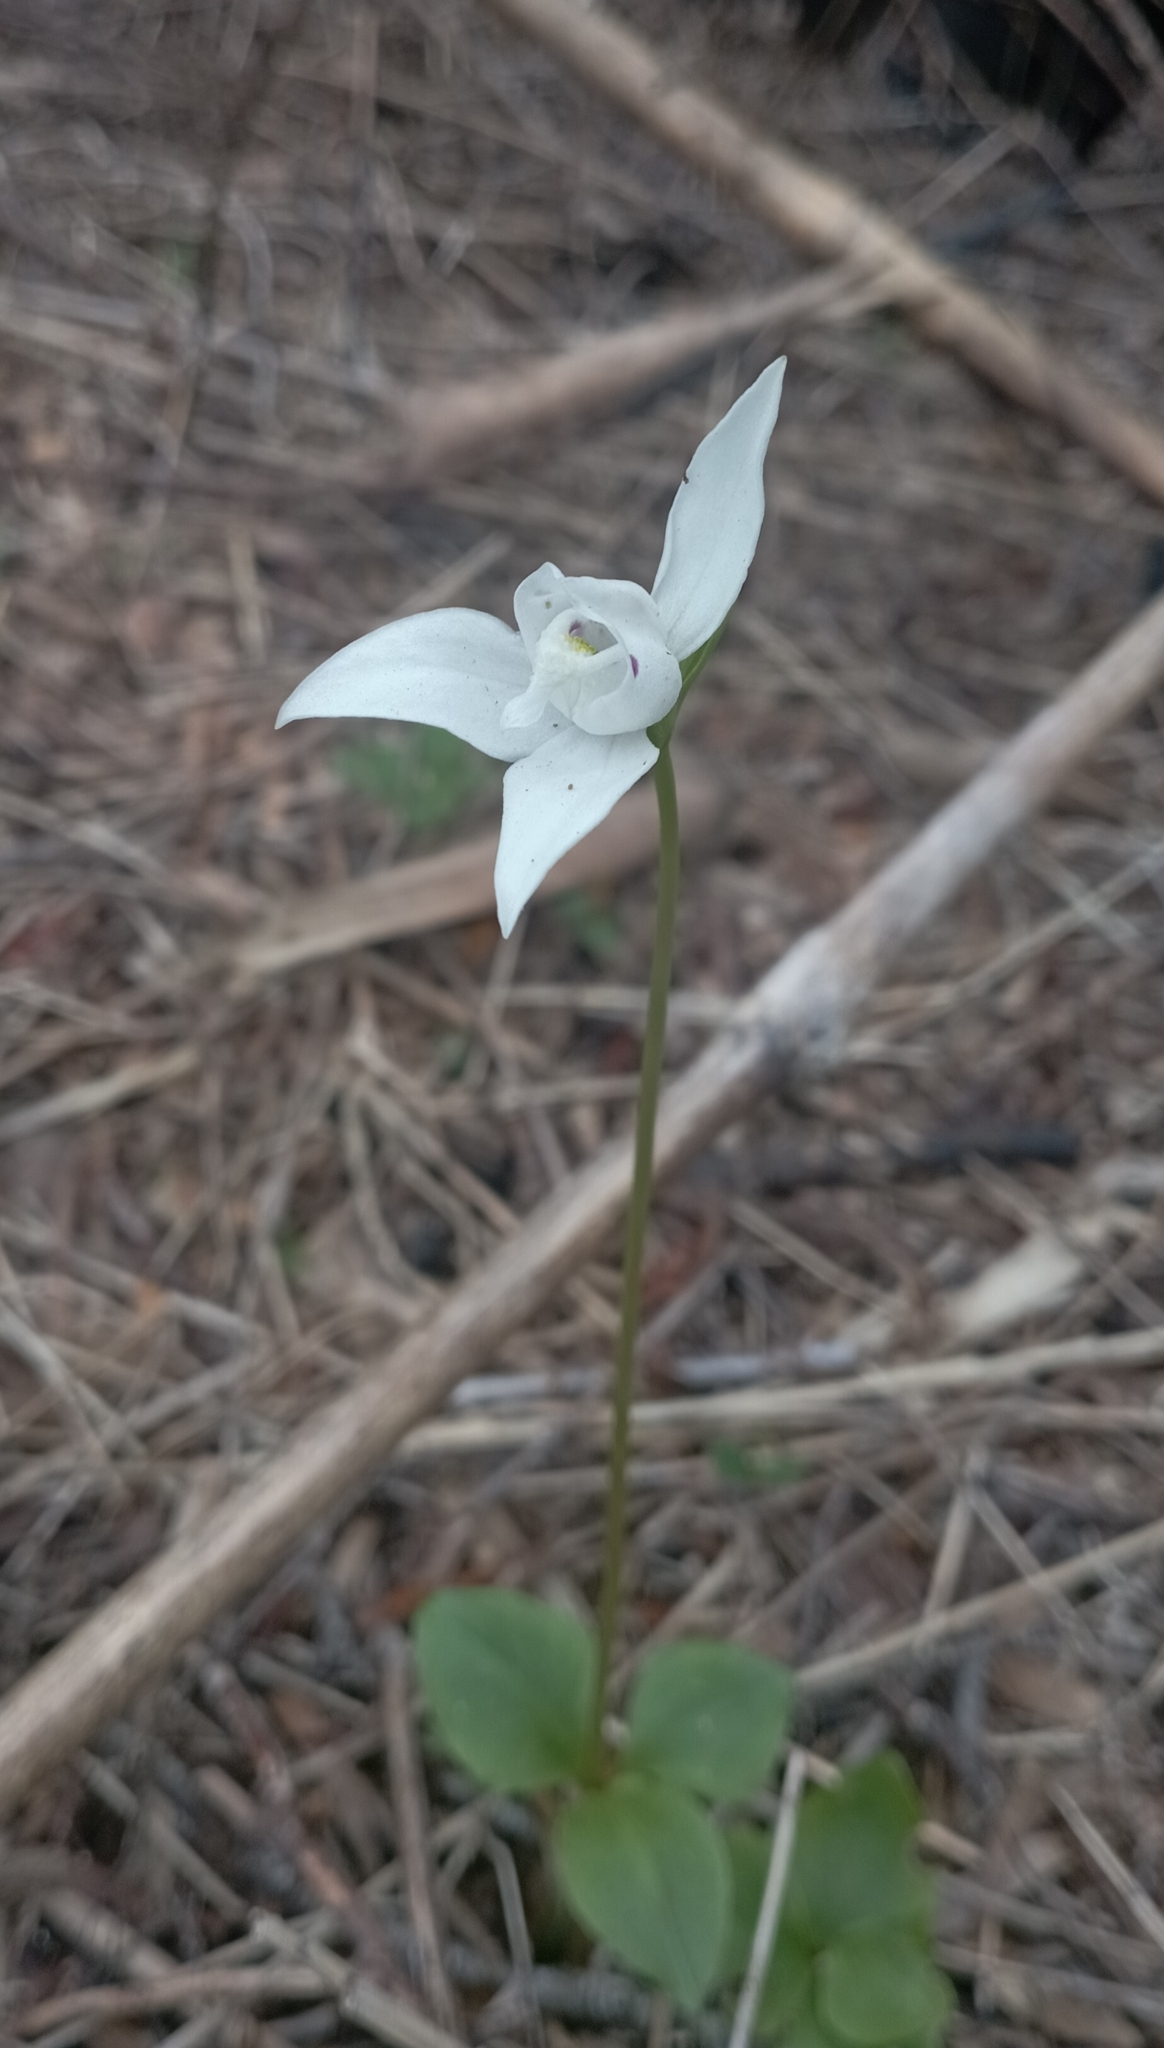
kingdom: Plantae
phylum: Tracheophyta
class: Liliopsida
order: Asparagales
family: Orchidaceae
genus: Codonorchis
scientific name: Codonorchis lessonii
